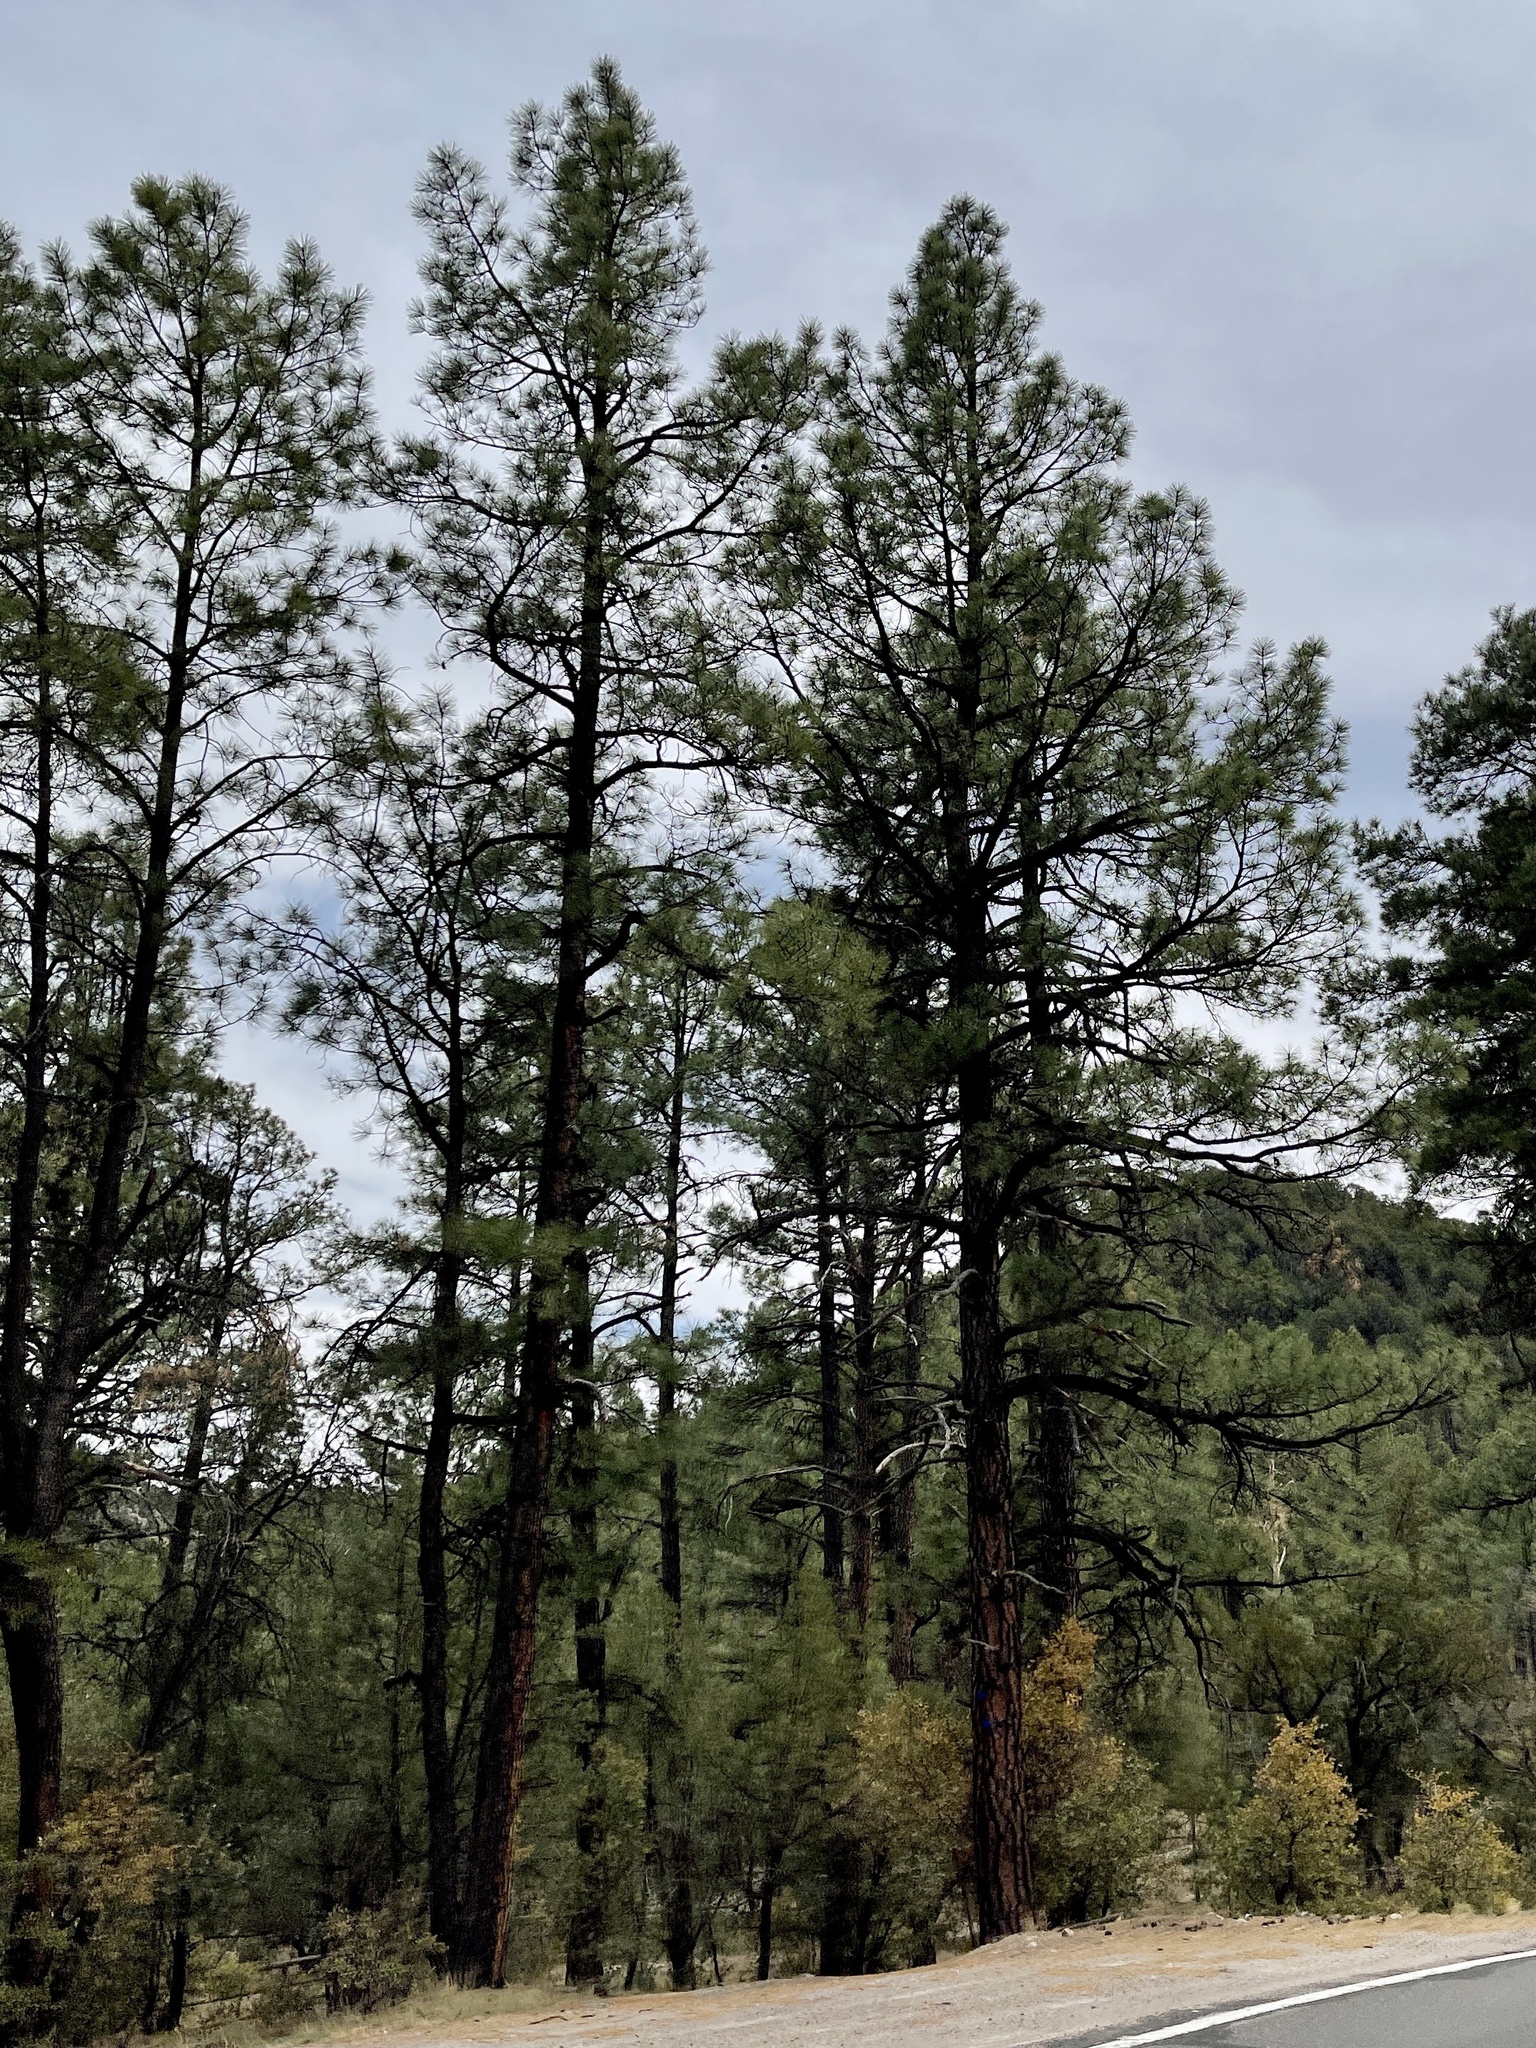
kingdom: Plantae
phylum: Tracheophyta
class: Pinopsida
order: Pinales
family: Pinaceae
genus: Pinus
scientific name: Pinus ponderosa
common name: Western yellow-pine
